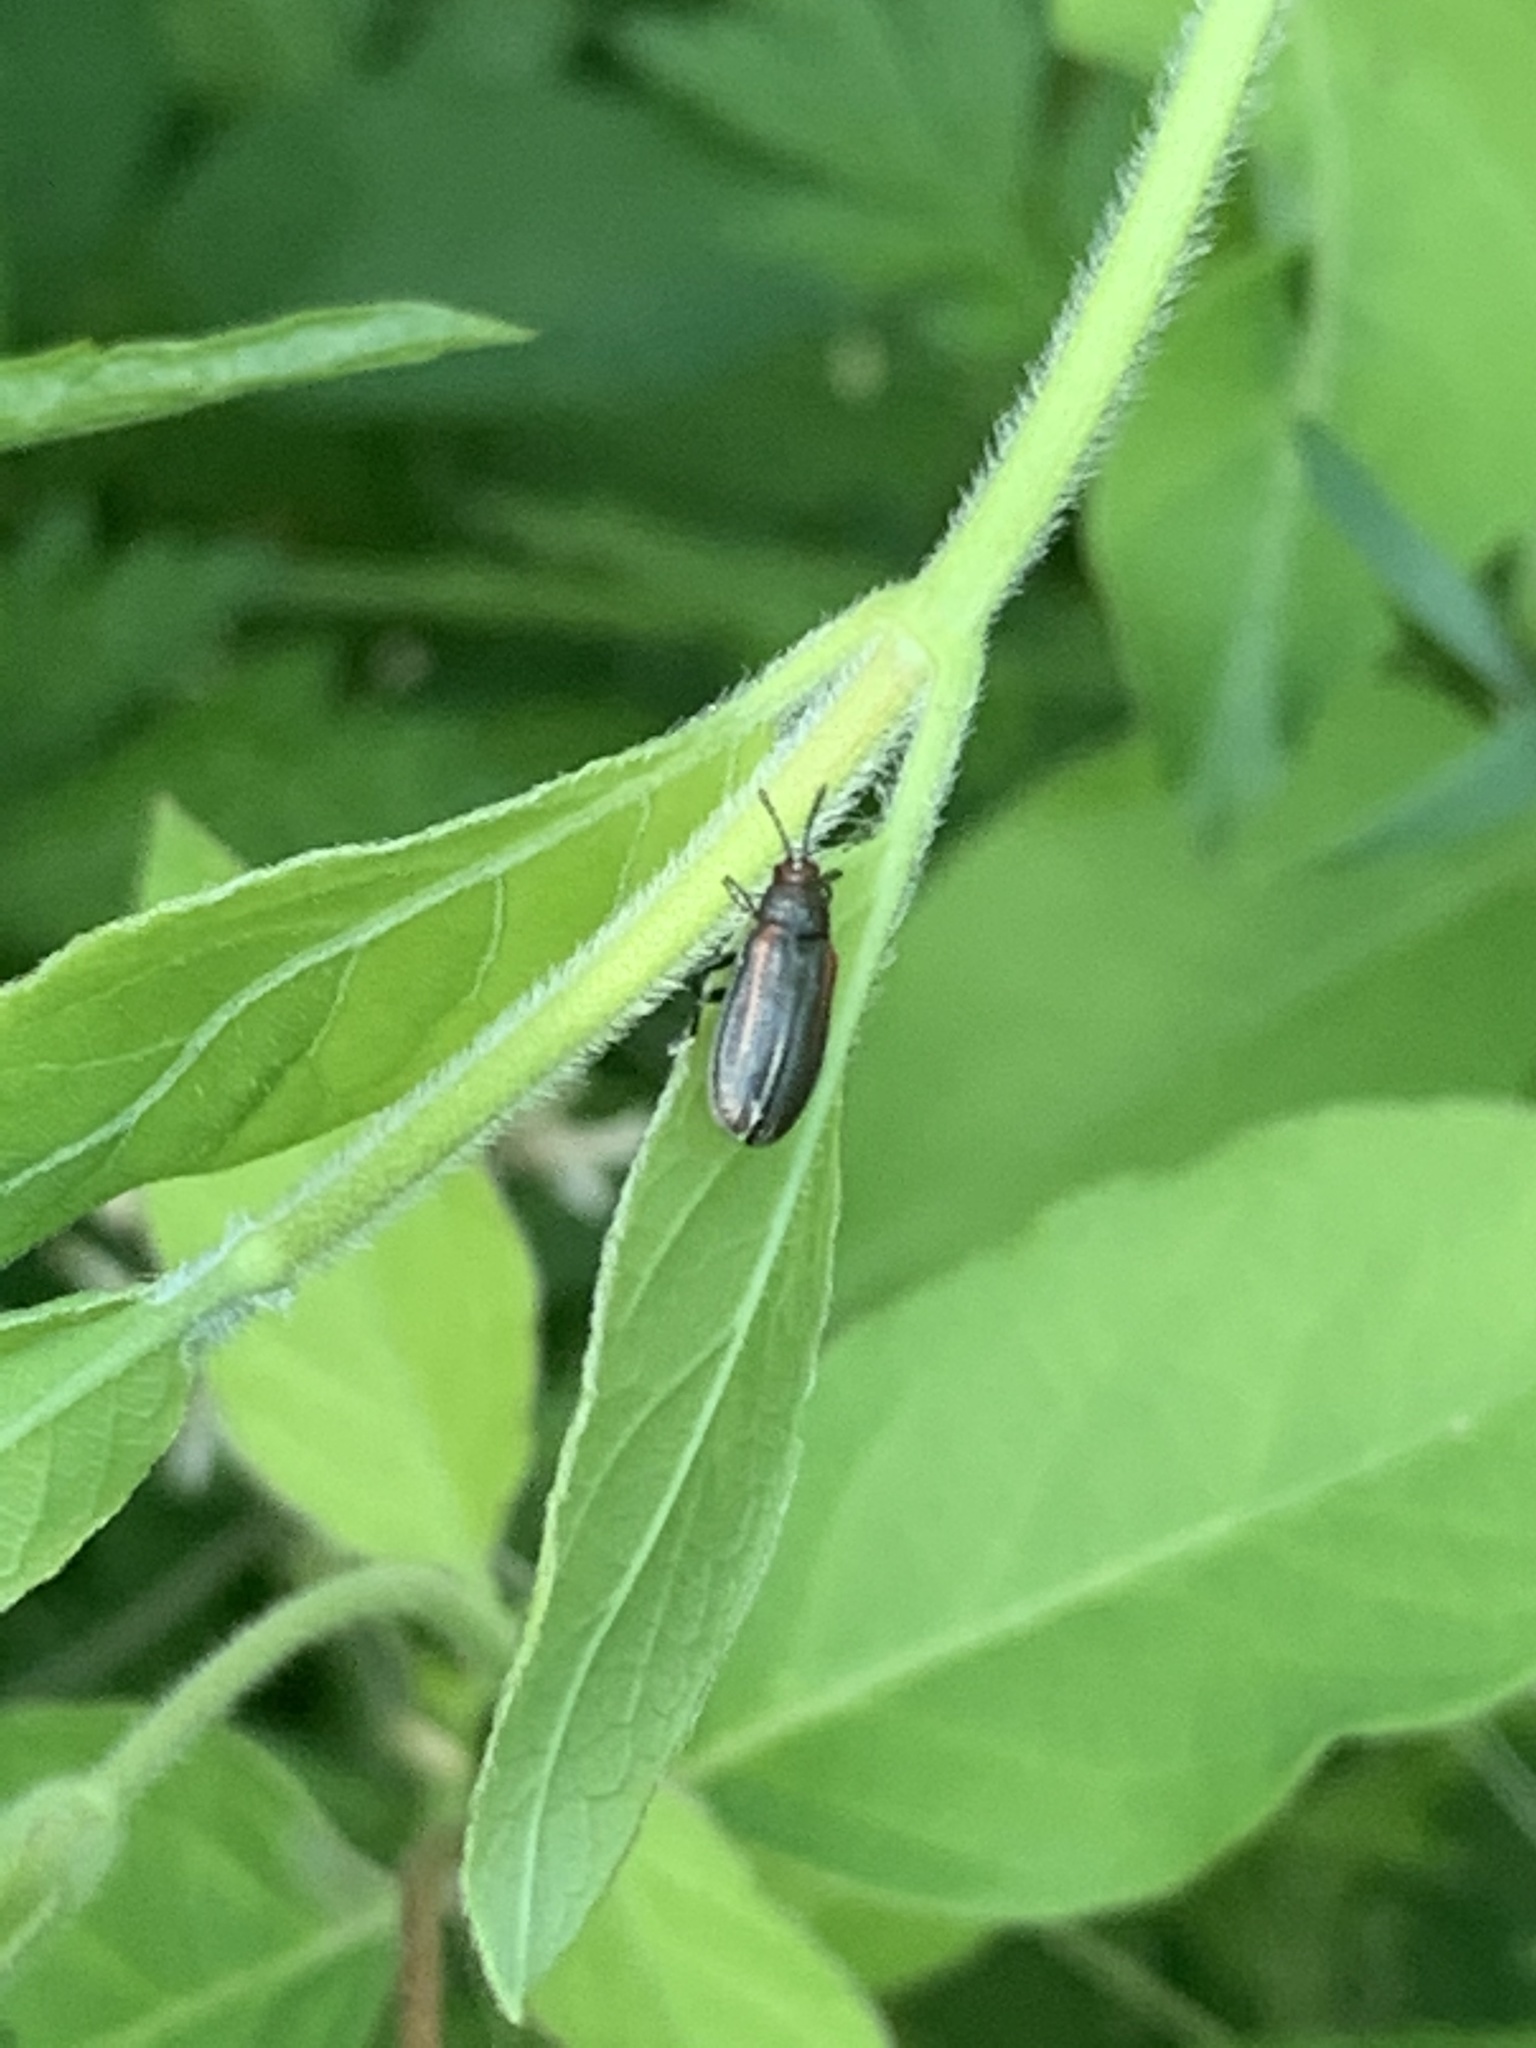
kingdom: Animalia
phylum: Arthropoda
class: Insecta
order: Coleoptera
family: Chrysomelidae
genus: Microrhopala
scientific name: Microrhopala vittata
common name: Goldenrod leaf miner beetle
